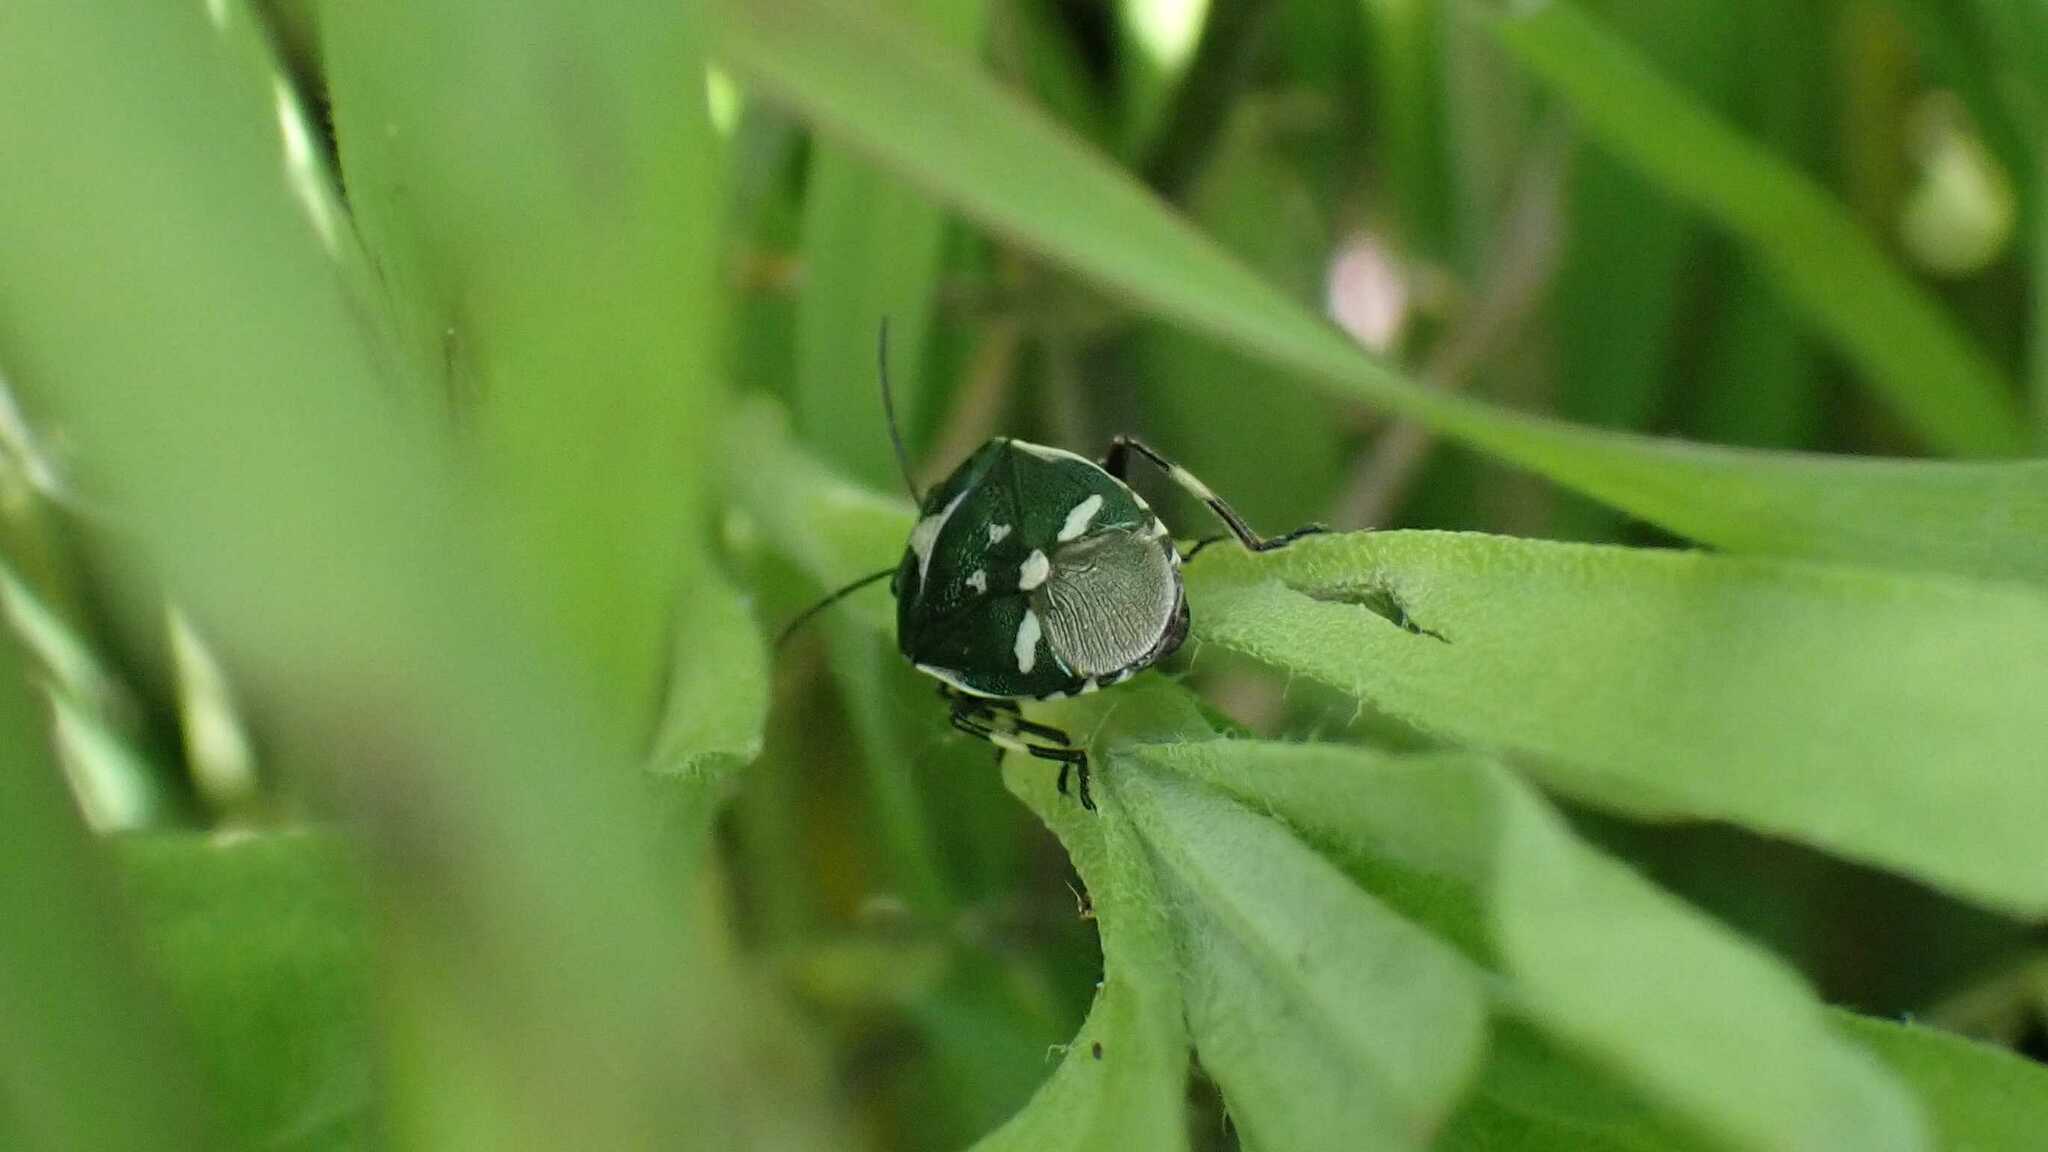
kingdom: Animalia
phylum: Arthropoda
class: Insecta
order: Hemiptera
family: Pentatomidae
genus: Eurydema
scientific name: Eurydema oleracea
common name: Cabbage bug
